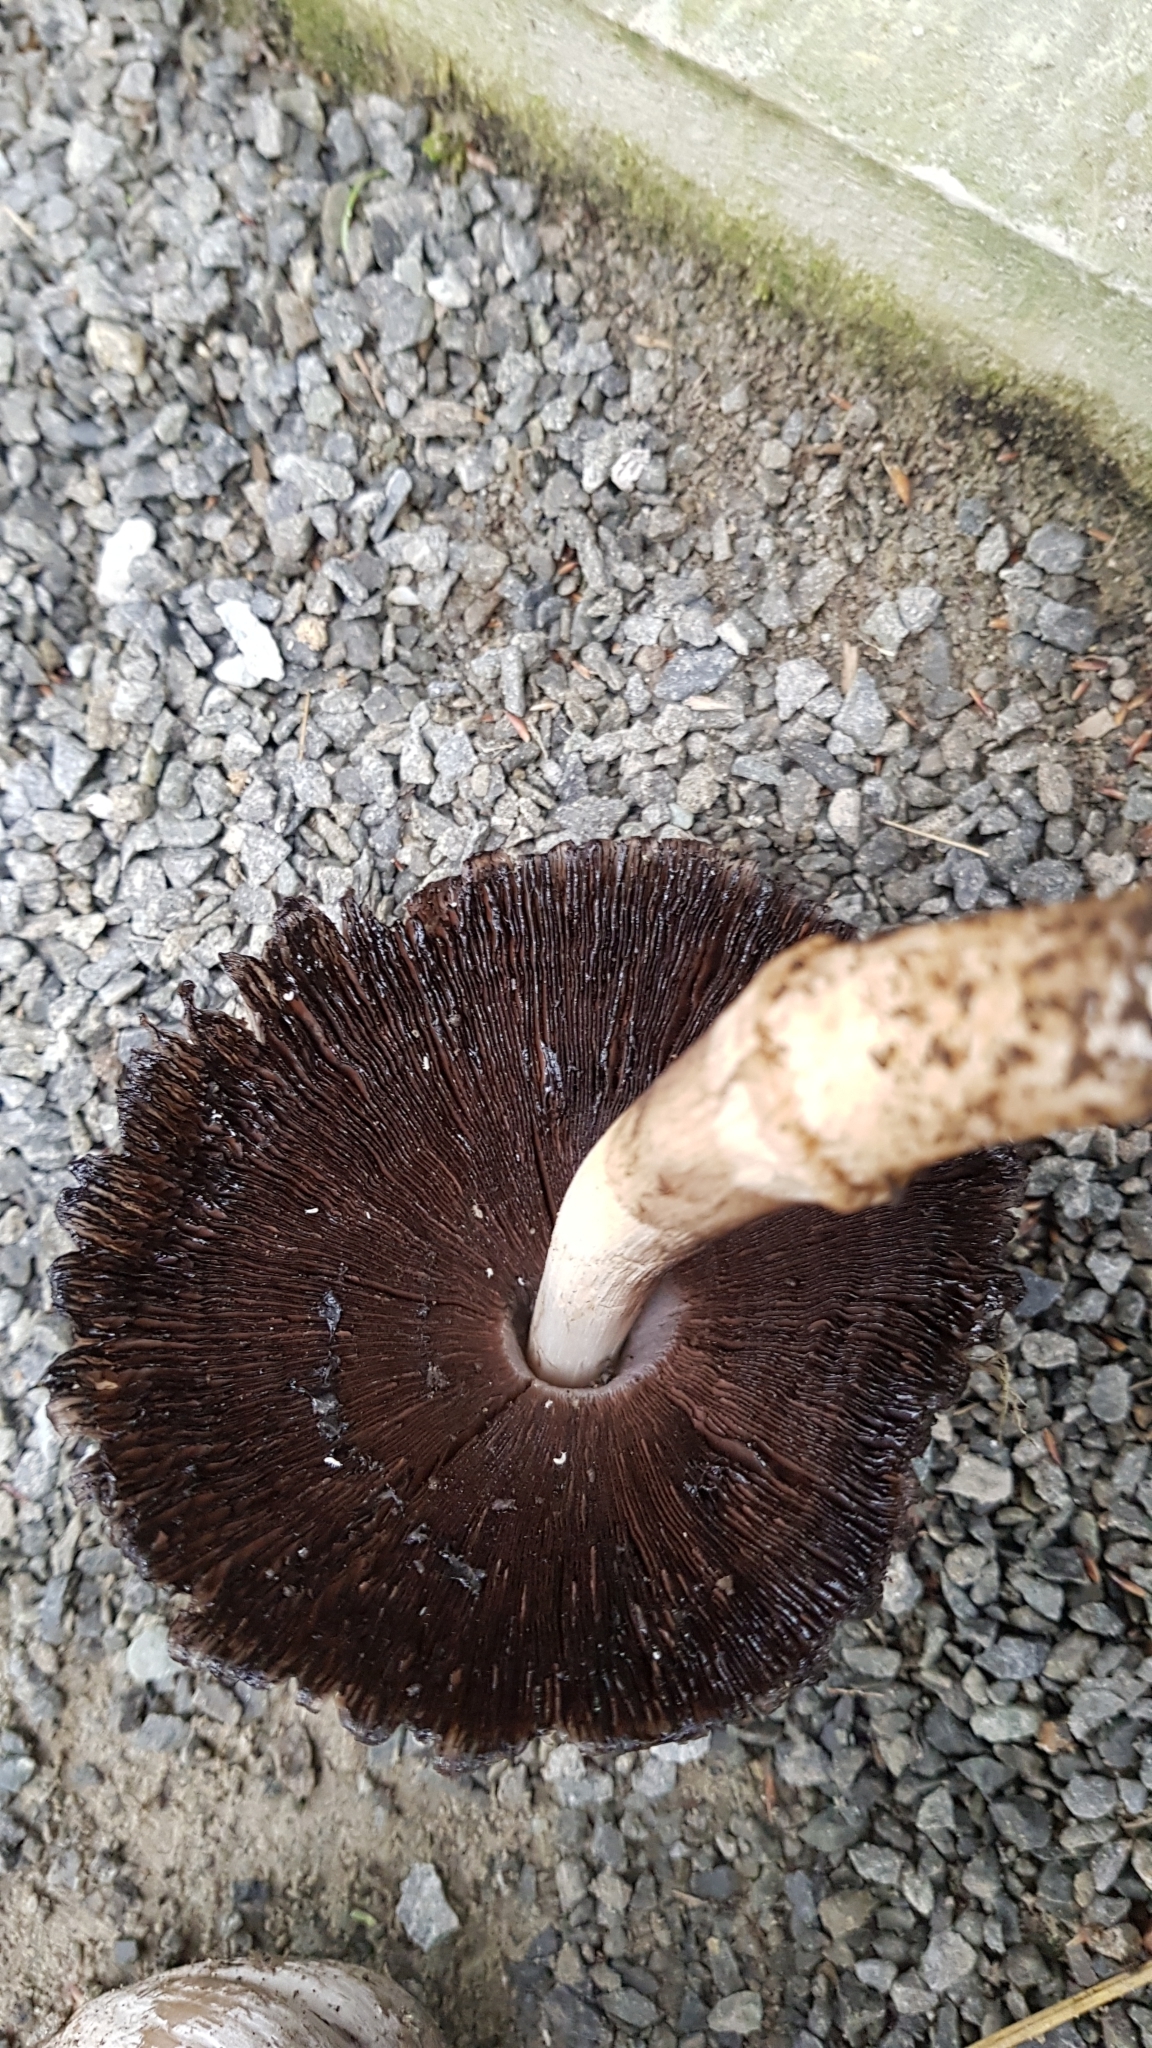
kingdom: Fungi
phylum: Basidiomycota
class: Agaricomycetes
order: Agaricales
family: Psathyrellaceae
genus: Coprinopsis
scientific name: Coprinopsis atramentaria
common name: Common ink-cap
